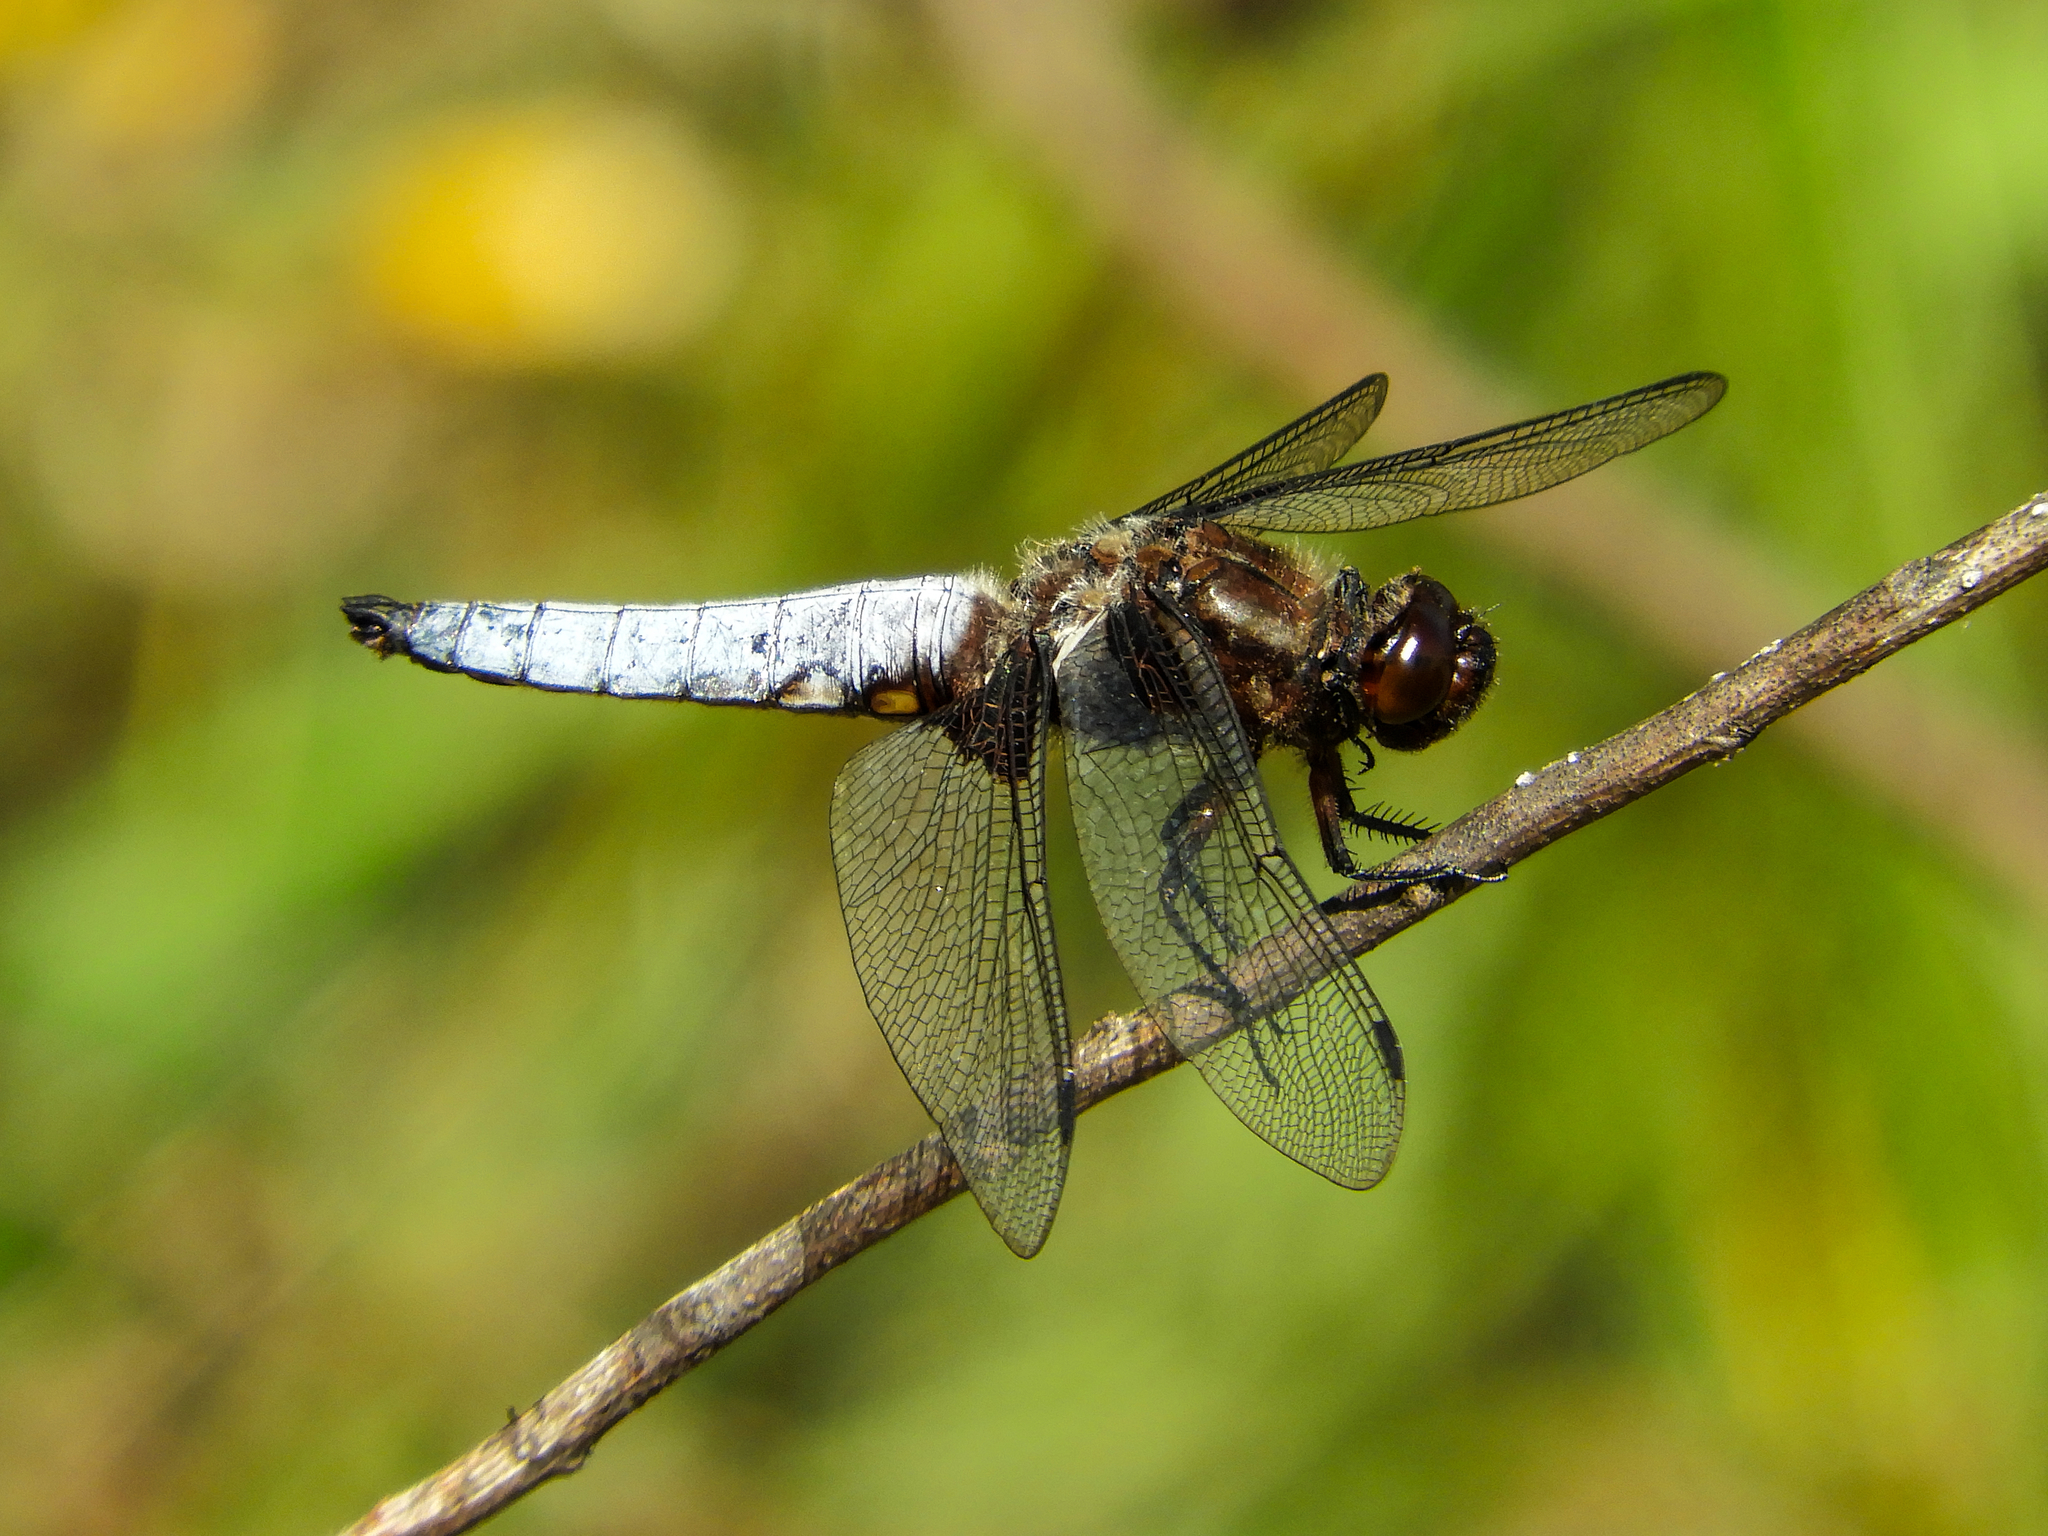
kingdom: Animalia
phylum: Arthropoda
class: Insecta
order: Odonata
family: Libellulidae
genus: Libellula
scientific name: Libellula depressa
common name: Broad-bodied chaser
